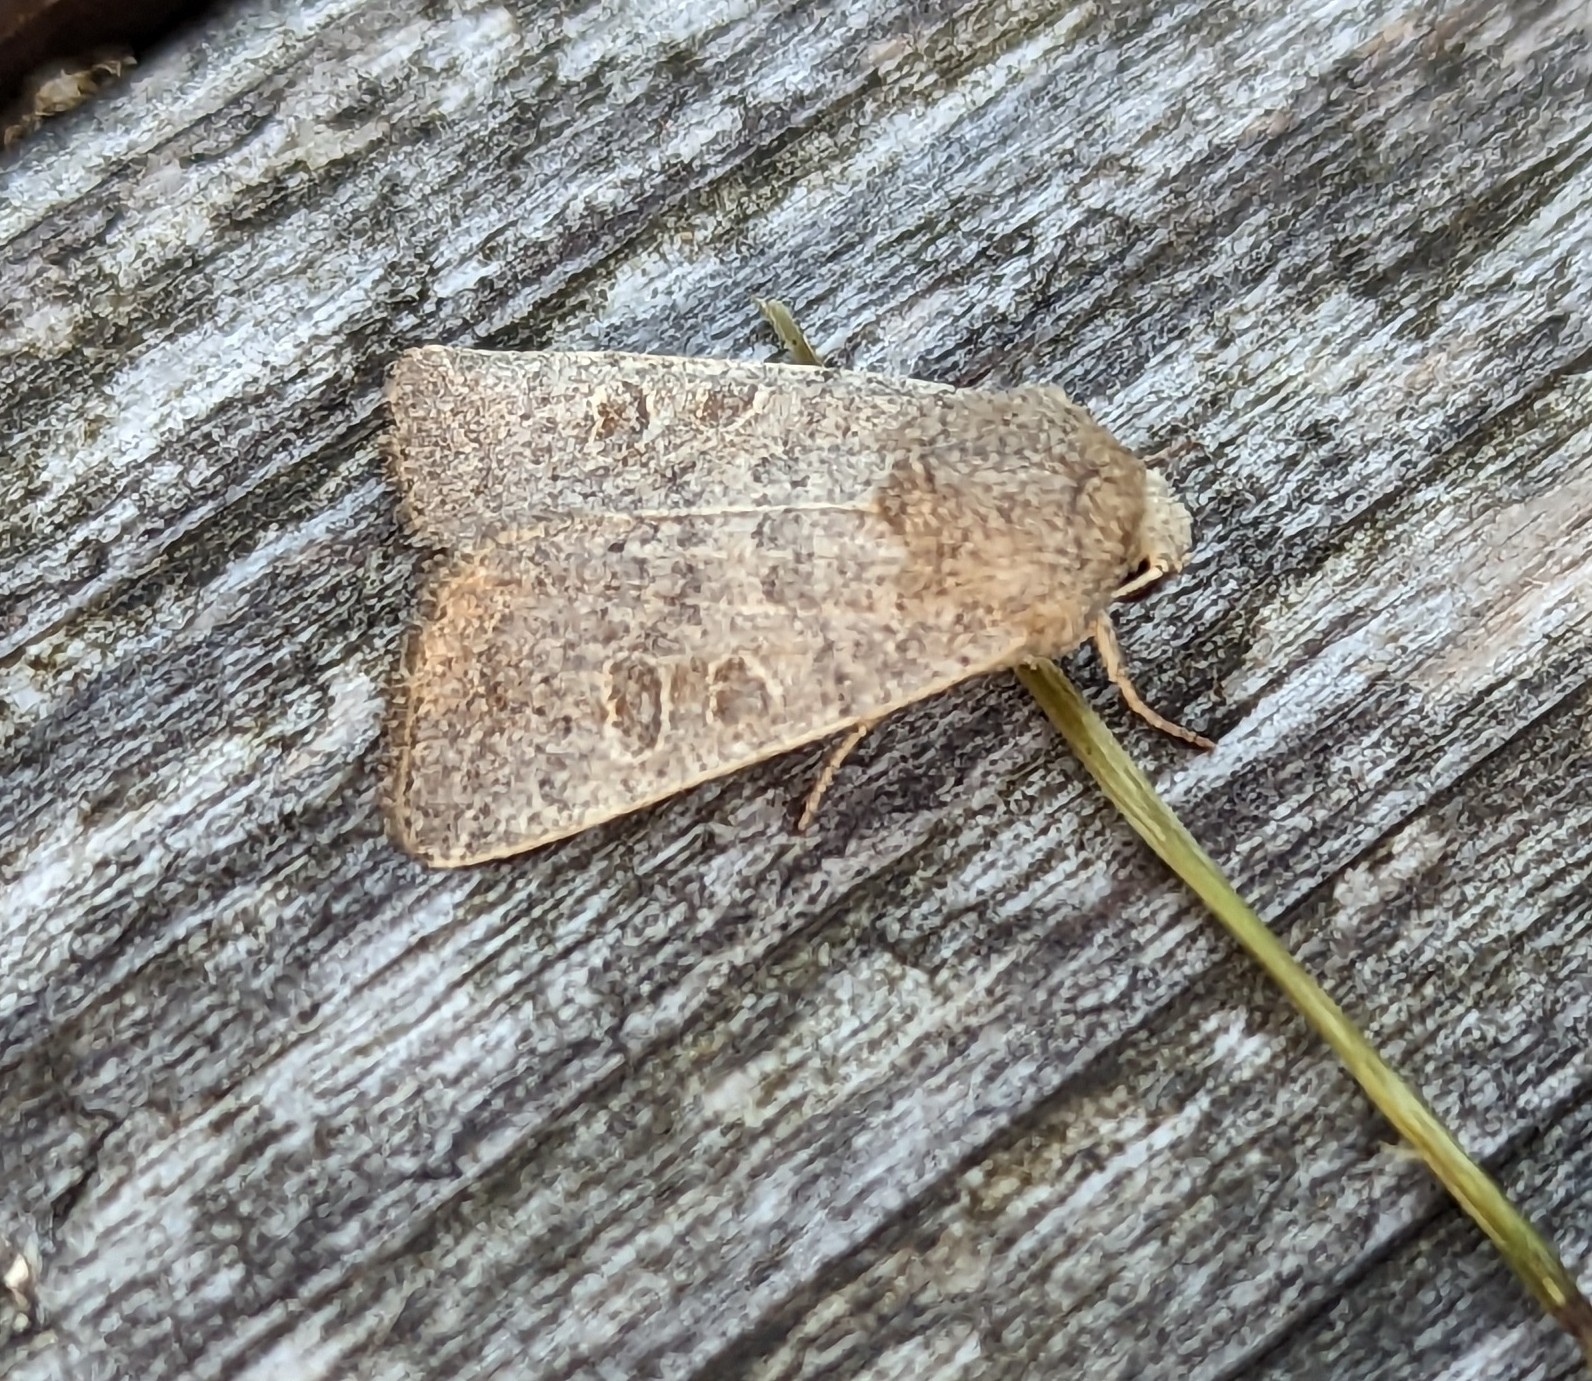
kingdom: Animalia
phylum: Arthropoda
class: Insecta
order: Lepidoptera
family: Noctuidae
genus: Hoplodrina
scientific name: Hoplodrina ambigua
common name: Vine's rustic
